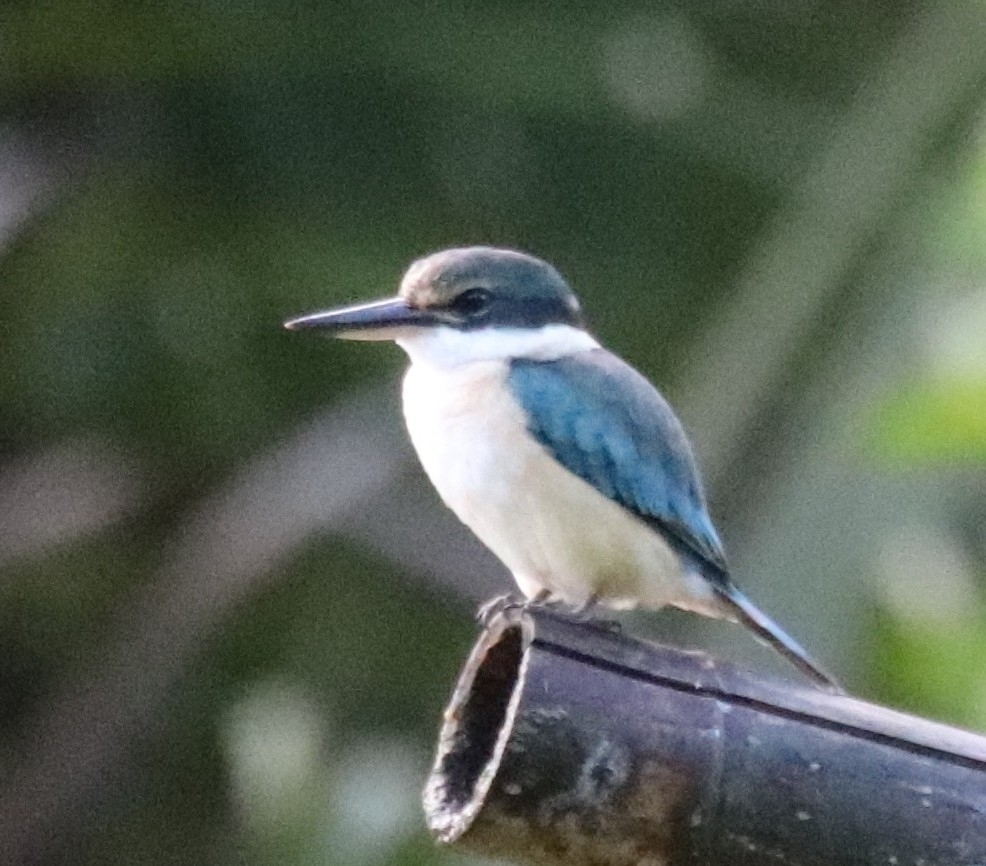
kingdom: Animalia
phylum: Chordata
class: Aves
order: Coraciiformes
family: Alcedinidae
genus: Todiramphus
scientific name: Todiramphus chloris
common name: Collared kingfisher
